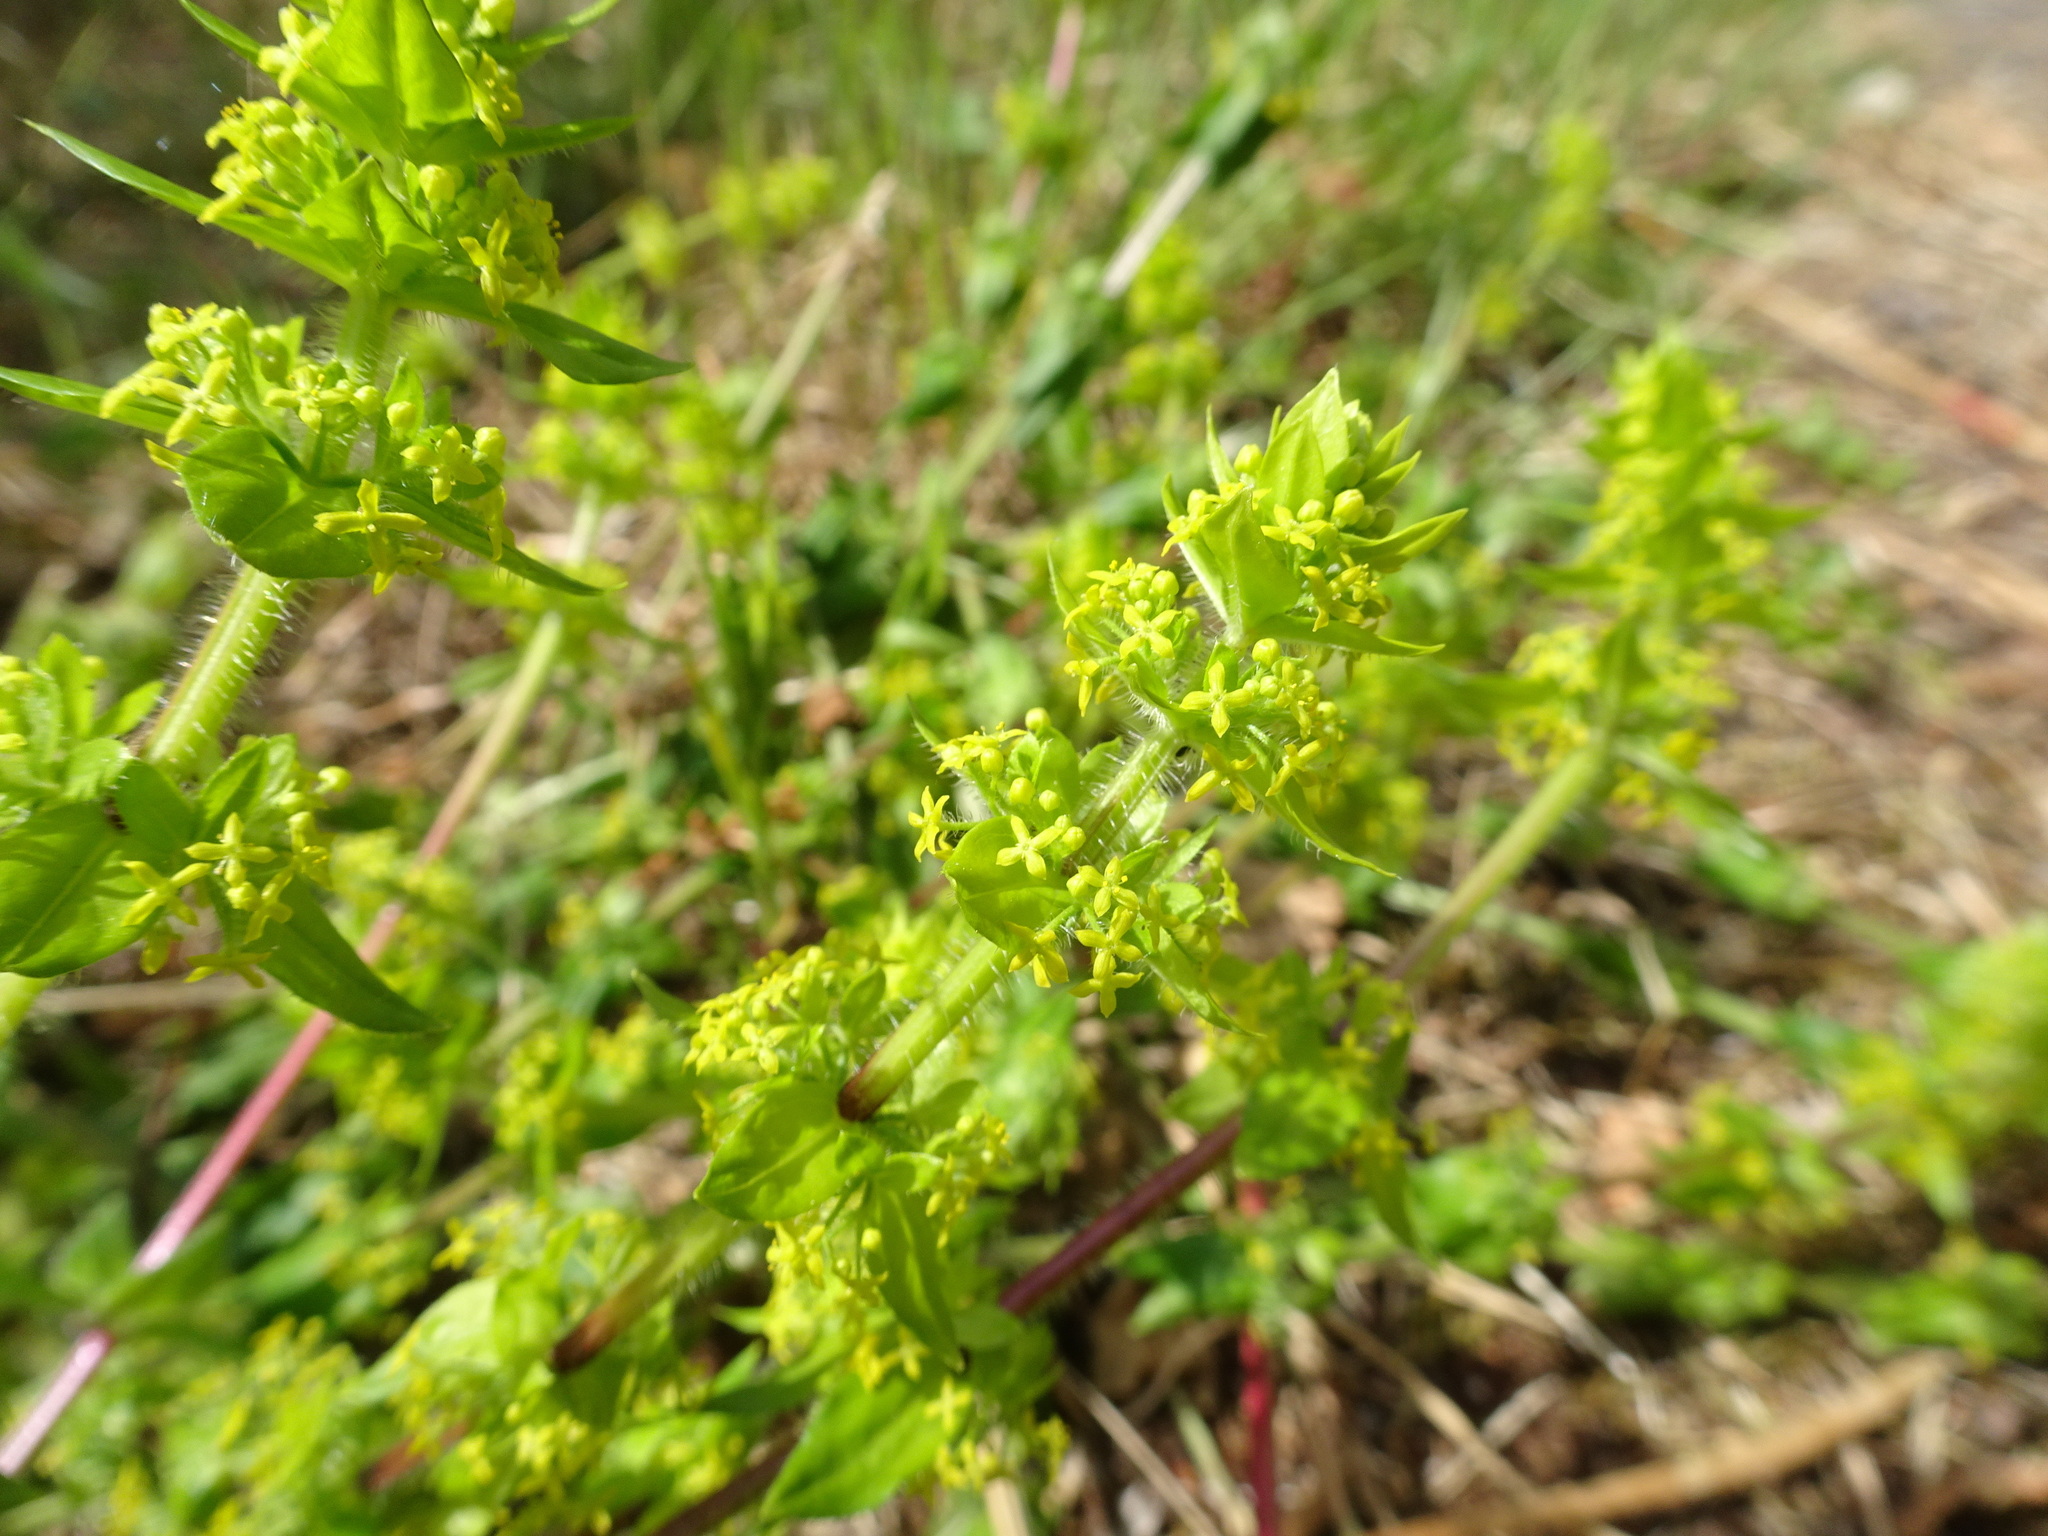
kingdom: Plantae
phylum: Tracheophyta
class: Magnoliopsida
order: Gentianales
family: Rubiaceae
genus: Cruciata
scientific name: Cruciata laevipes
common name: Crosswort
